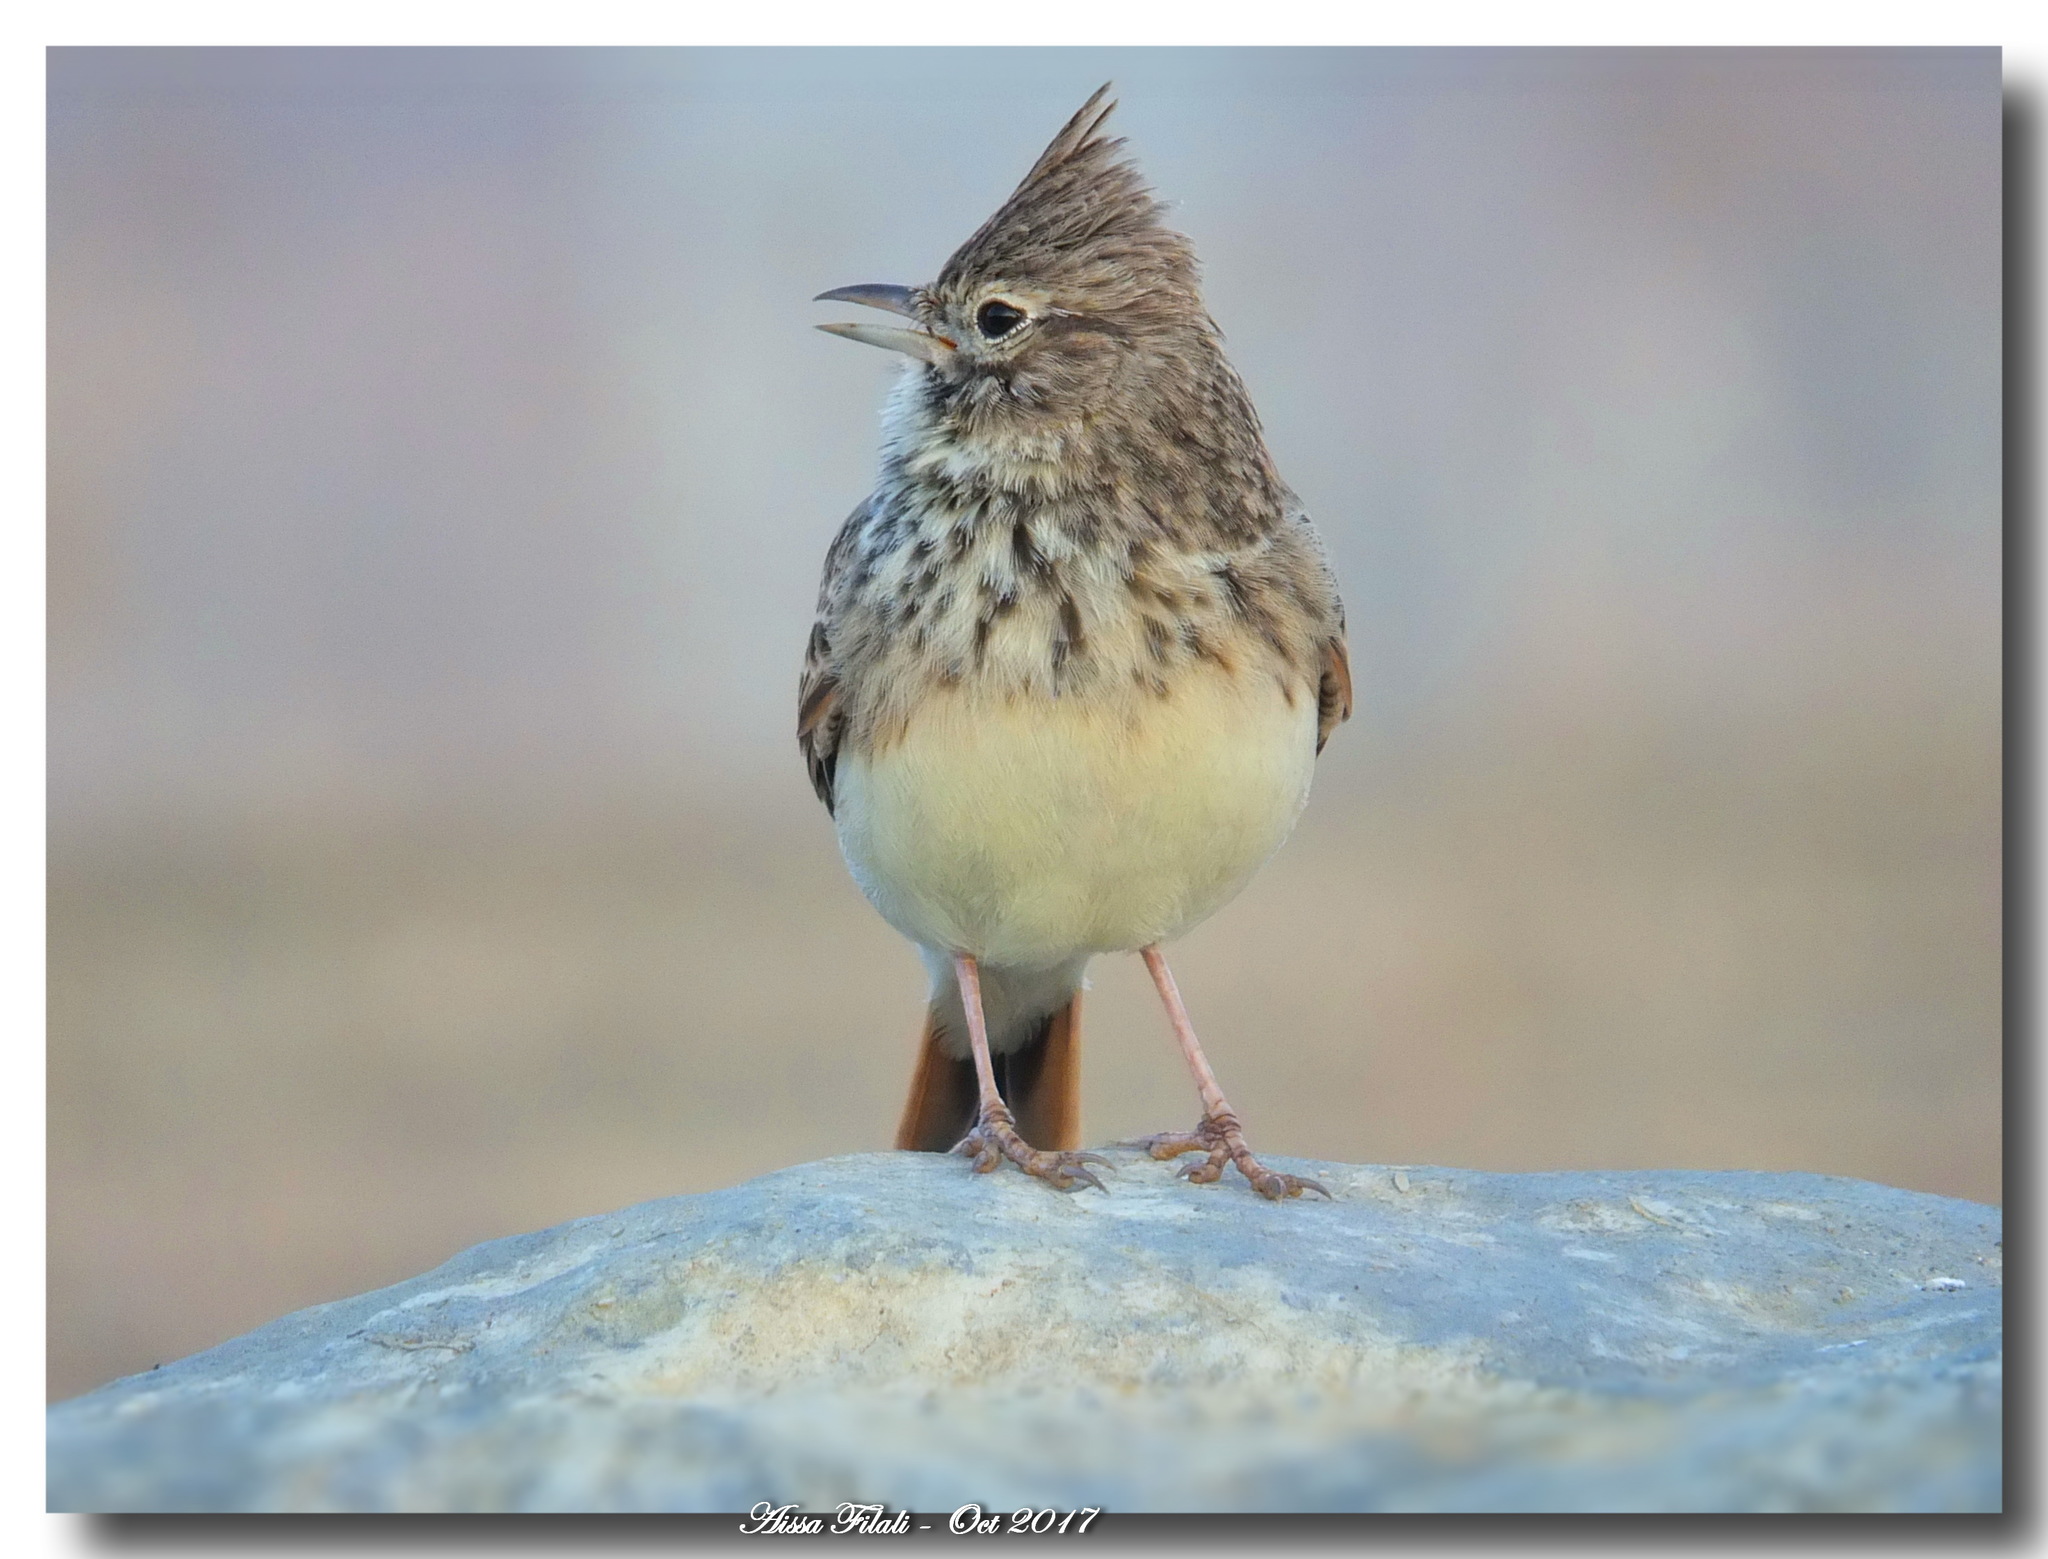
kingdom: Animalia
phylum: Chordata
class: Aves
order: Passeriformes
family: Alaudidae
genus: Galerida
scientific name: Galerida cristata
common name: Crested lark
